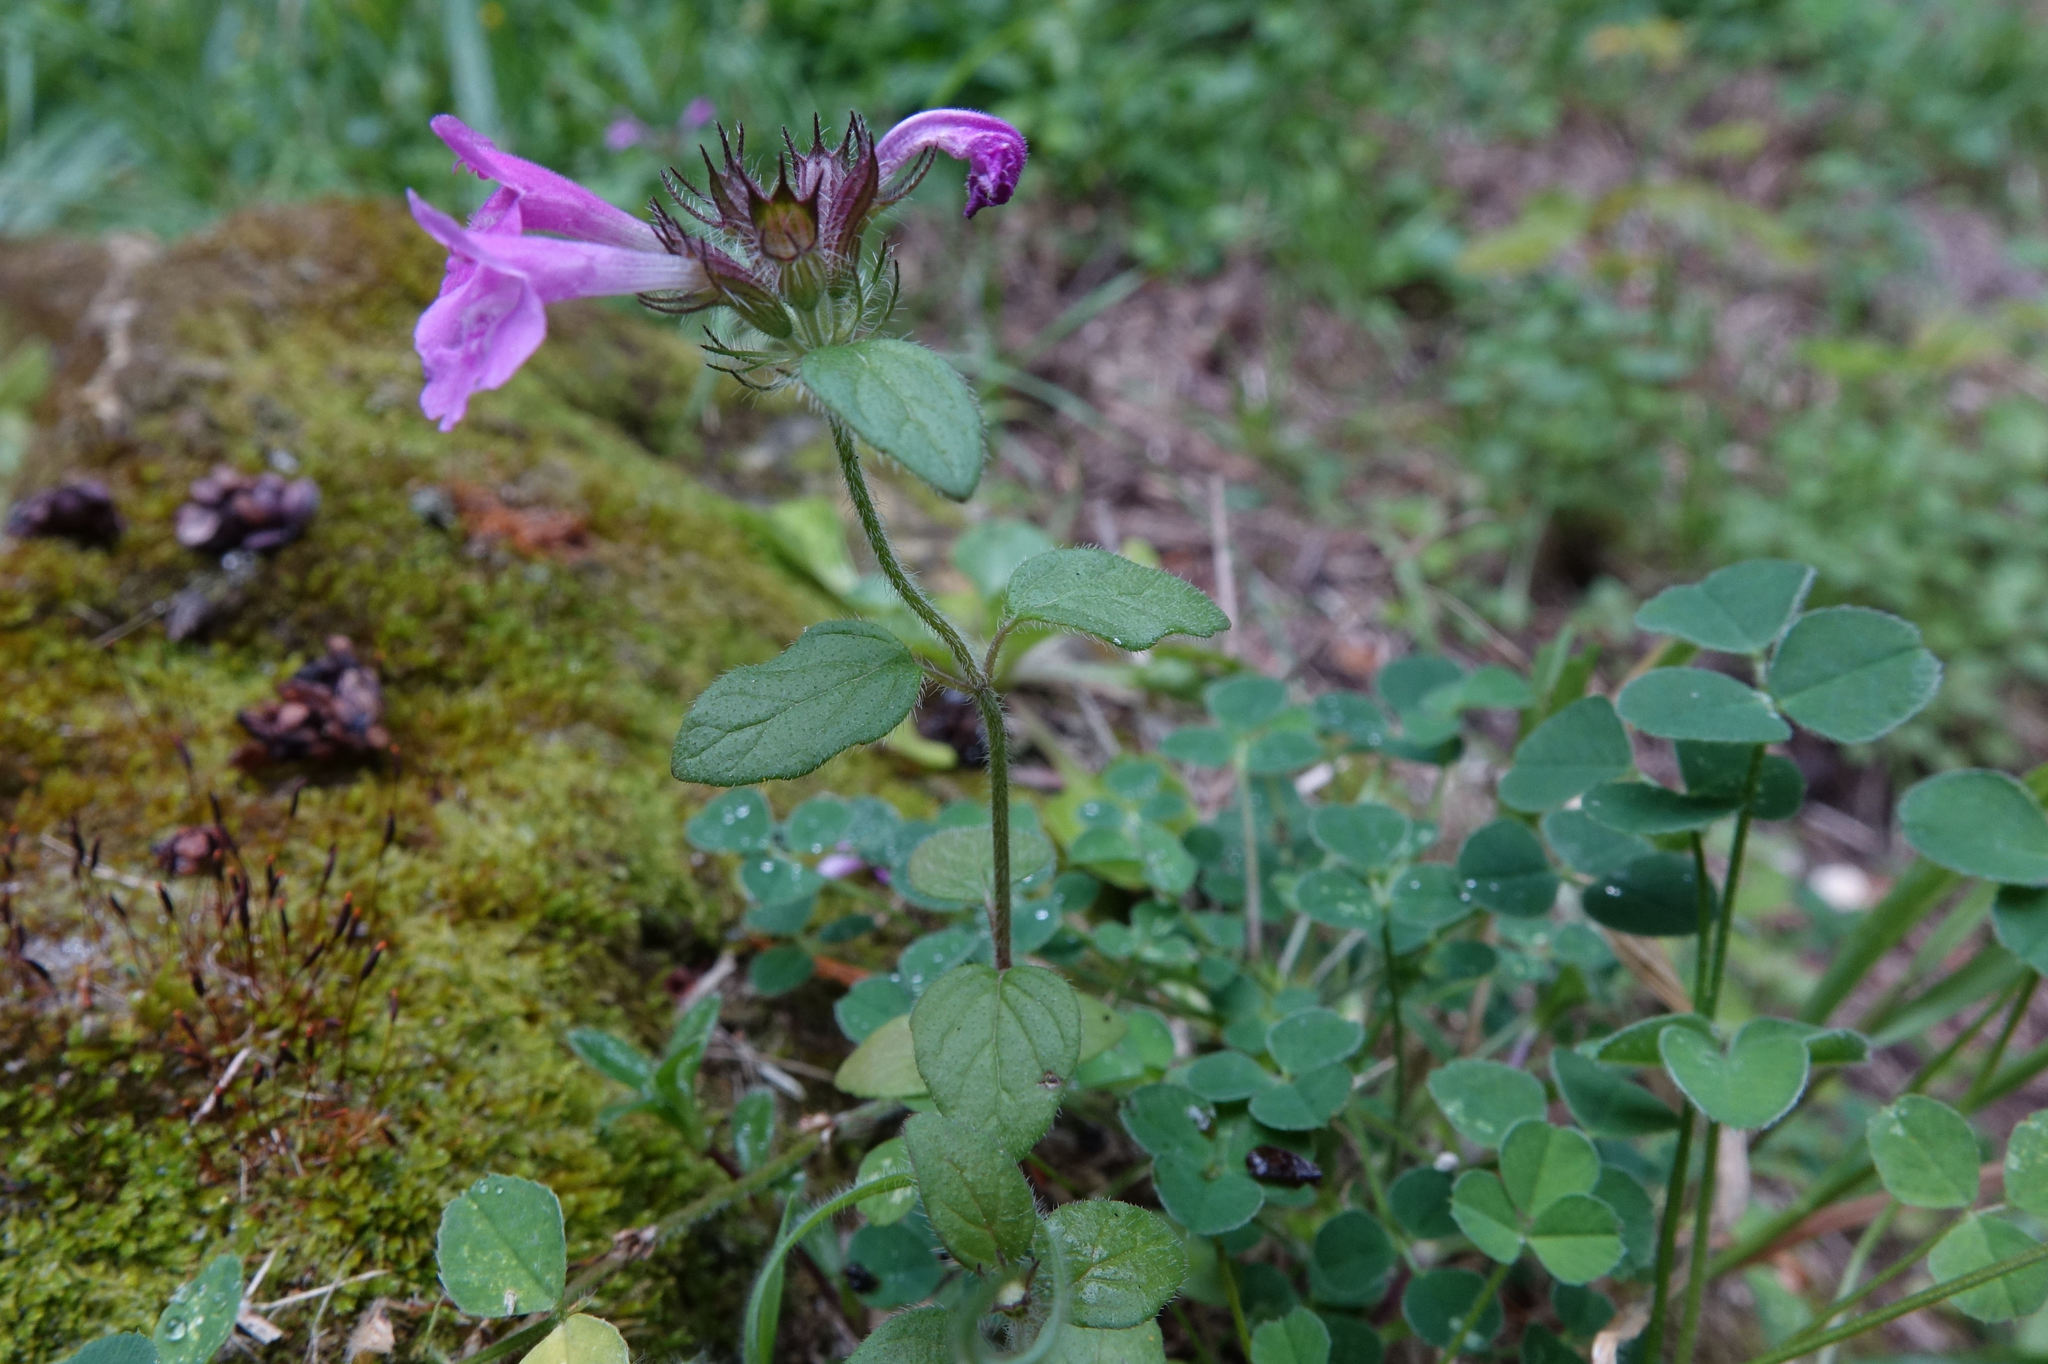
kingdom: Plantae
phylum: Tracheophyta
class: Magnoliopsida
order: Lamiales
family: Lamiaceae
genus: Clinopodium
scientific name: Clinopodium vulgare
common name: Wild basil
